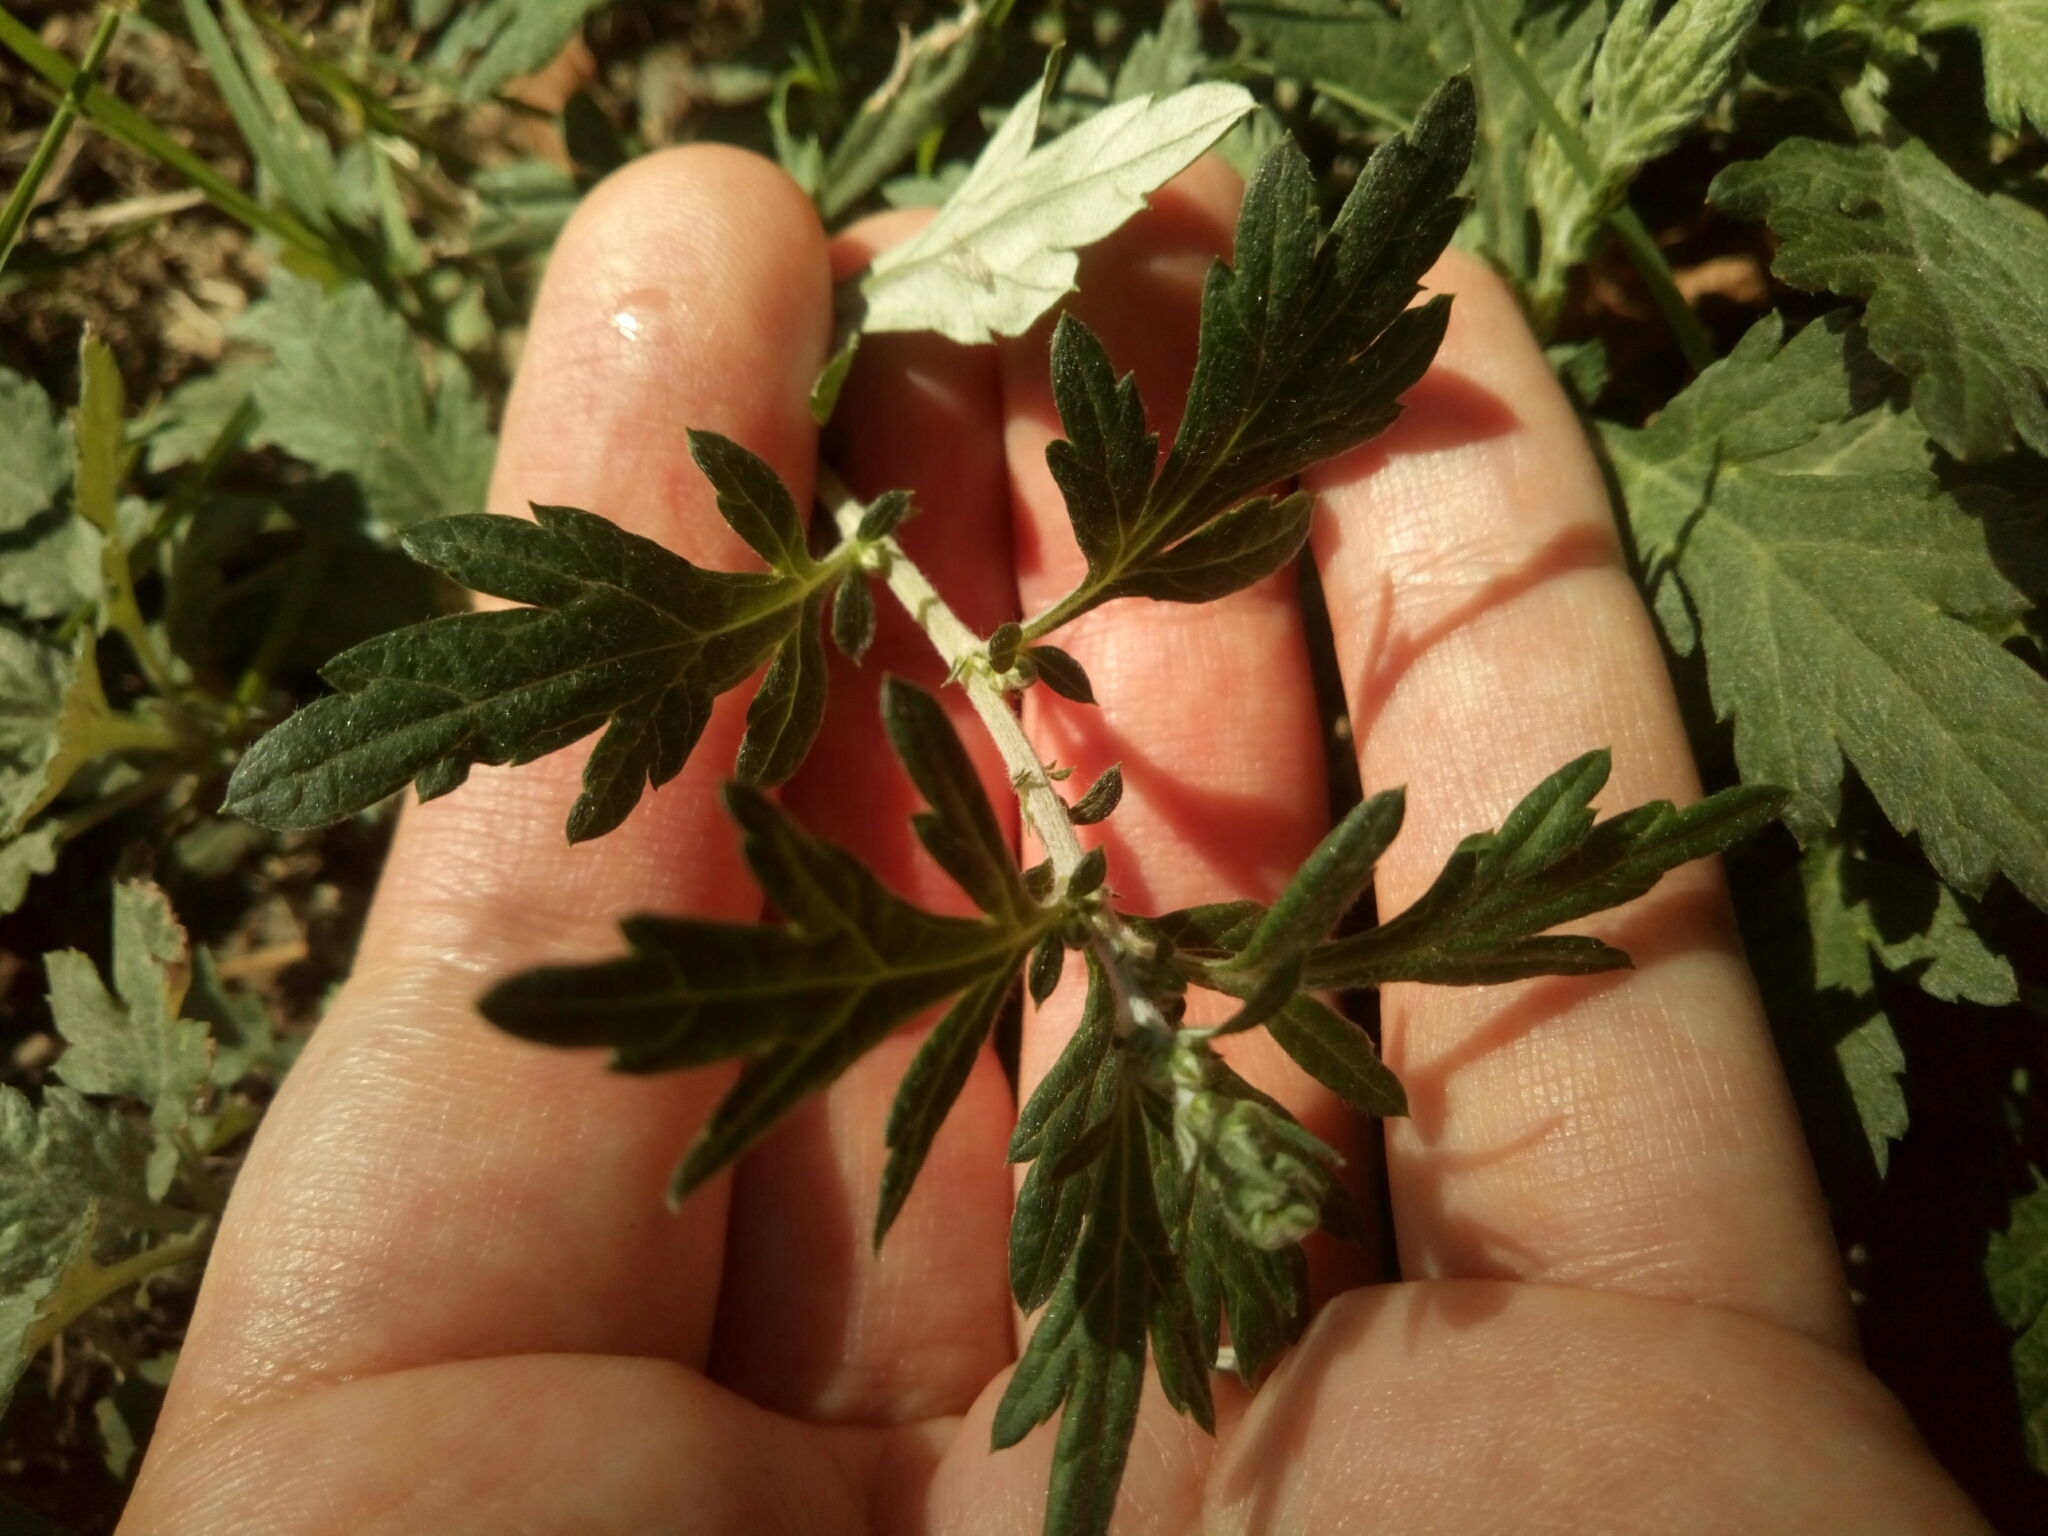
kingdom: Plantae
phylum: Tracheophyta
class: Magnoliopsida
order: Asterales
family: Asteraceae
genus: Artemisia
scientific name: Artemisia vulgaris
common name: Mugwort
